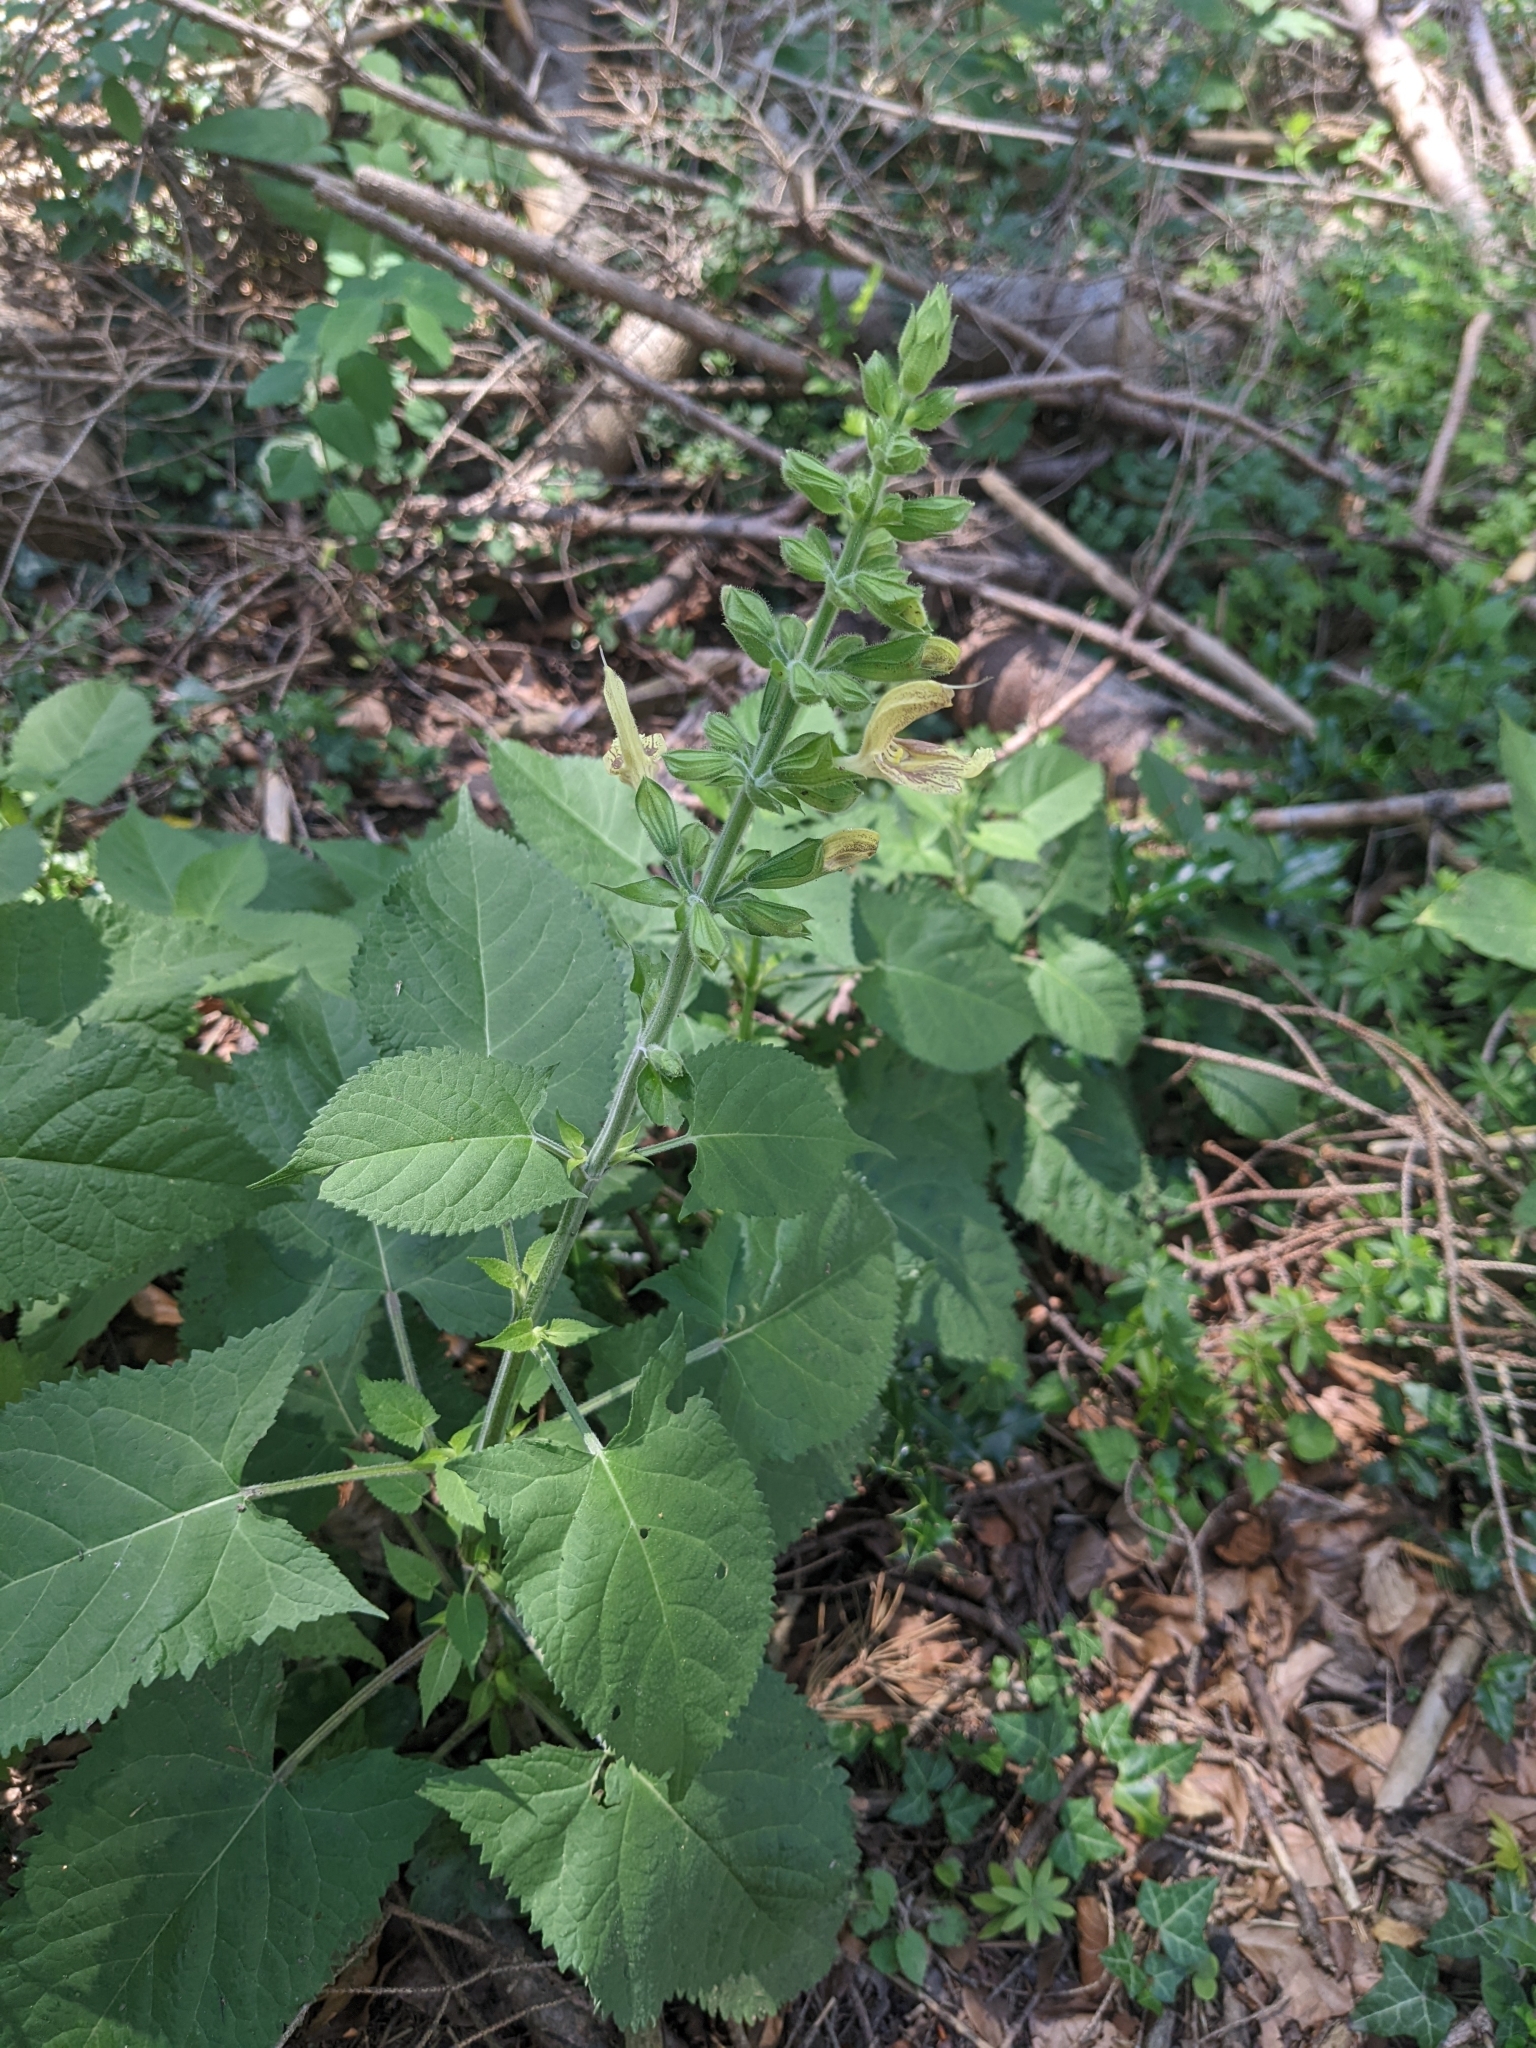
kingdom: Plantae
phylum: Tracheophyta
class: Magnoliopsida
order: Lamiales
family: Lamiaceae
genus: Salvia
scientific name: Salvia glutinosa
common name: Sticky clary
